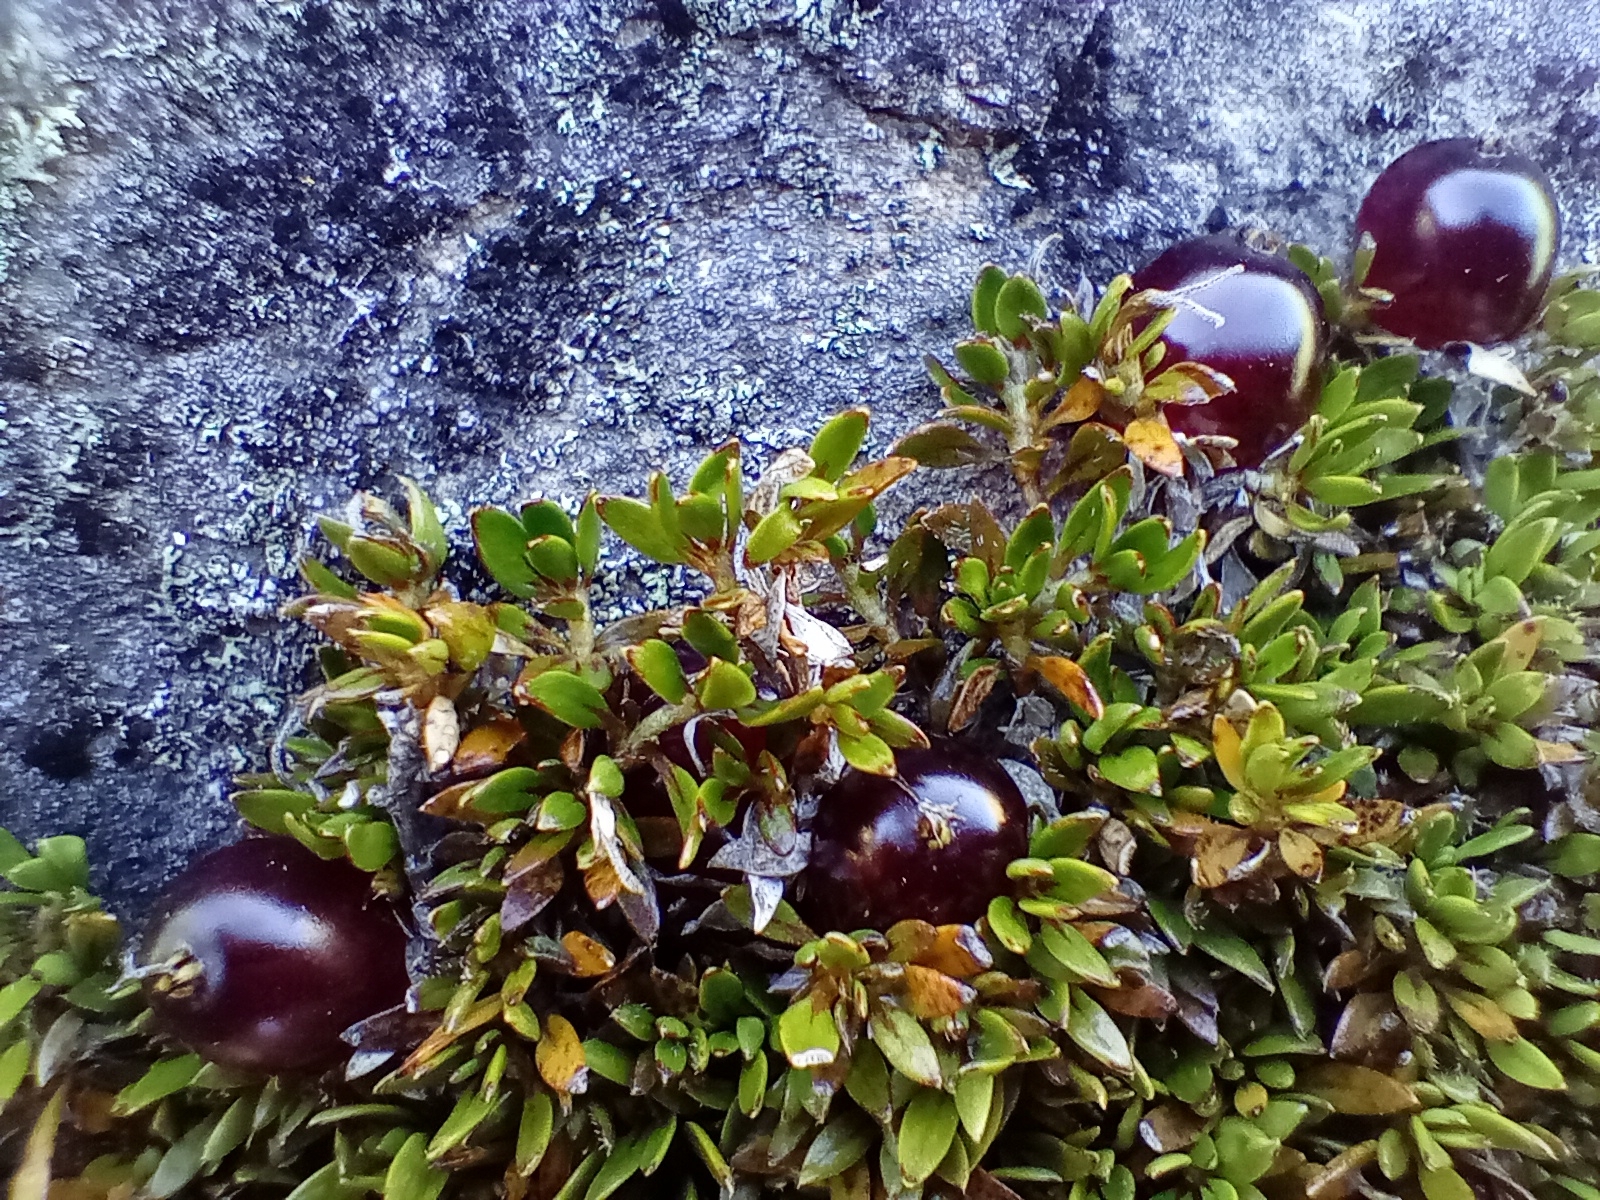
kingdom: Plantae
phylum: Tracheophyta
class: Magnoliopsida
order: Gentianales
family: Rubiaceae
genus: Coprosma
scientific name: Coprosma atropurpurea
